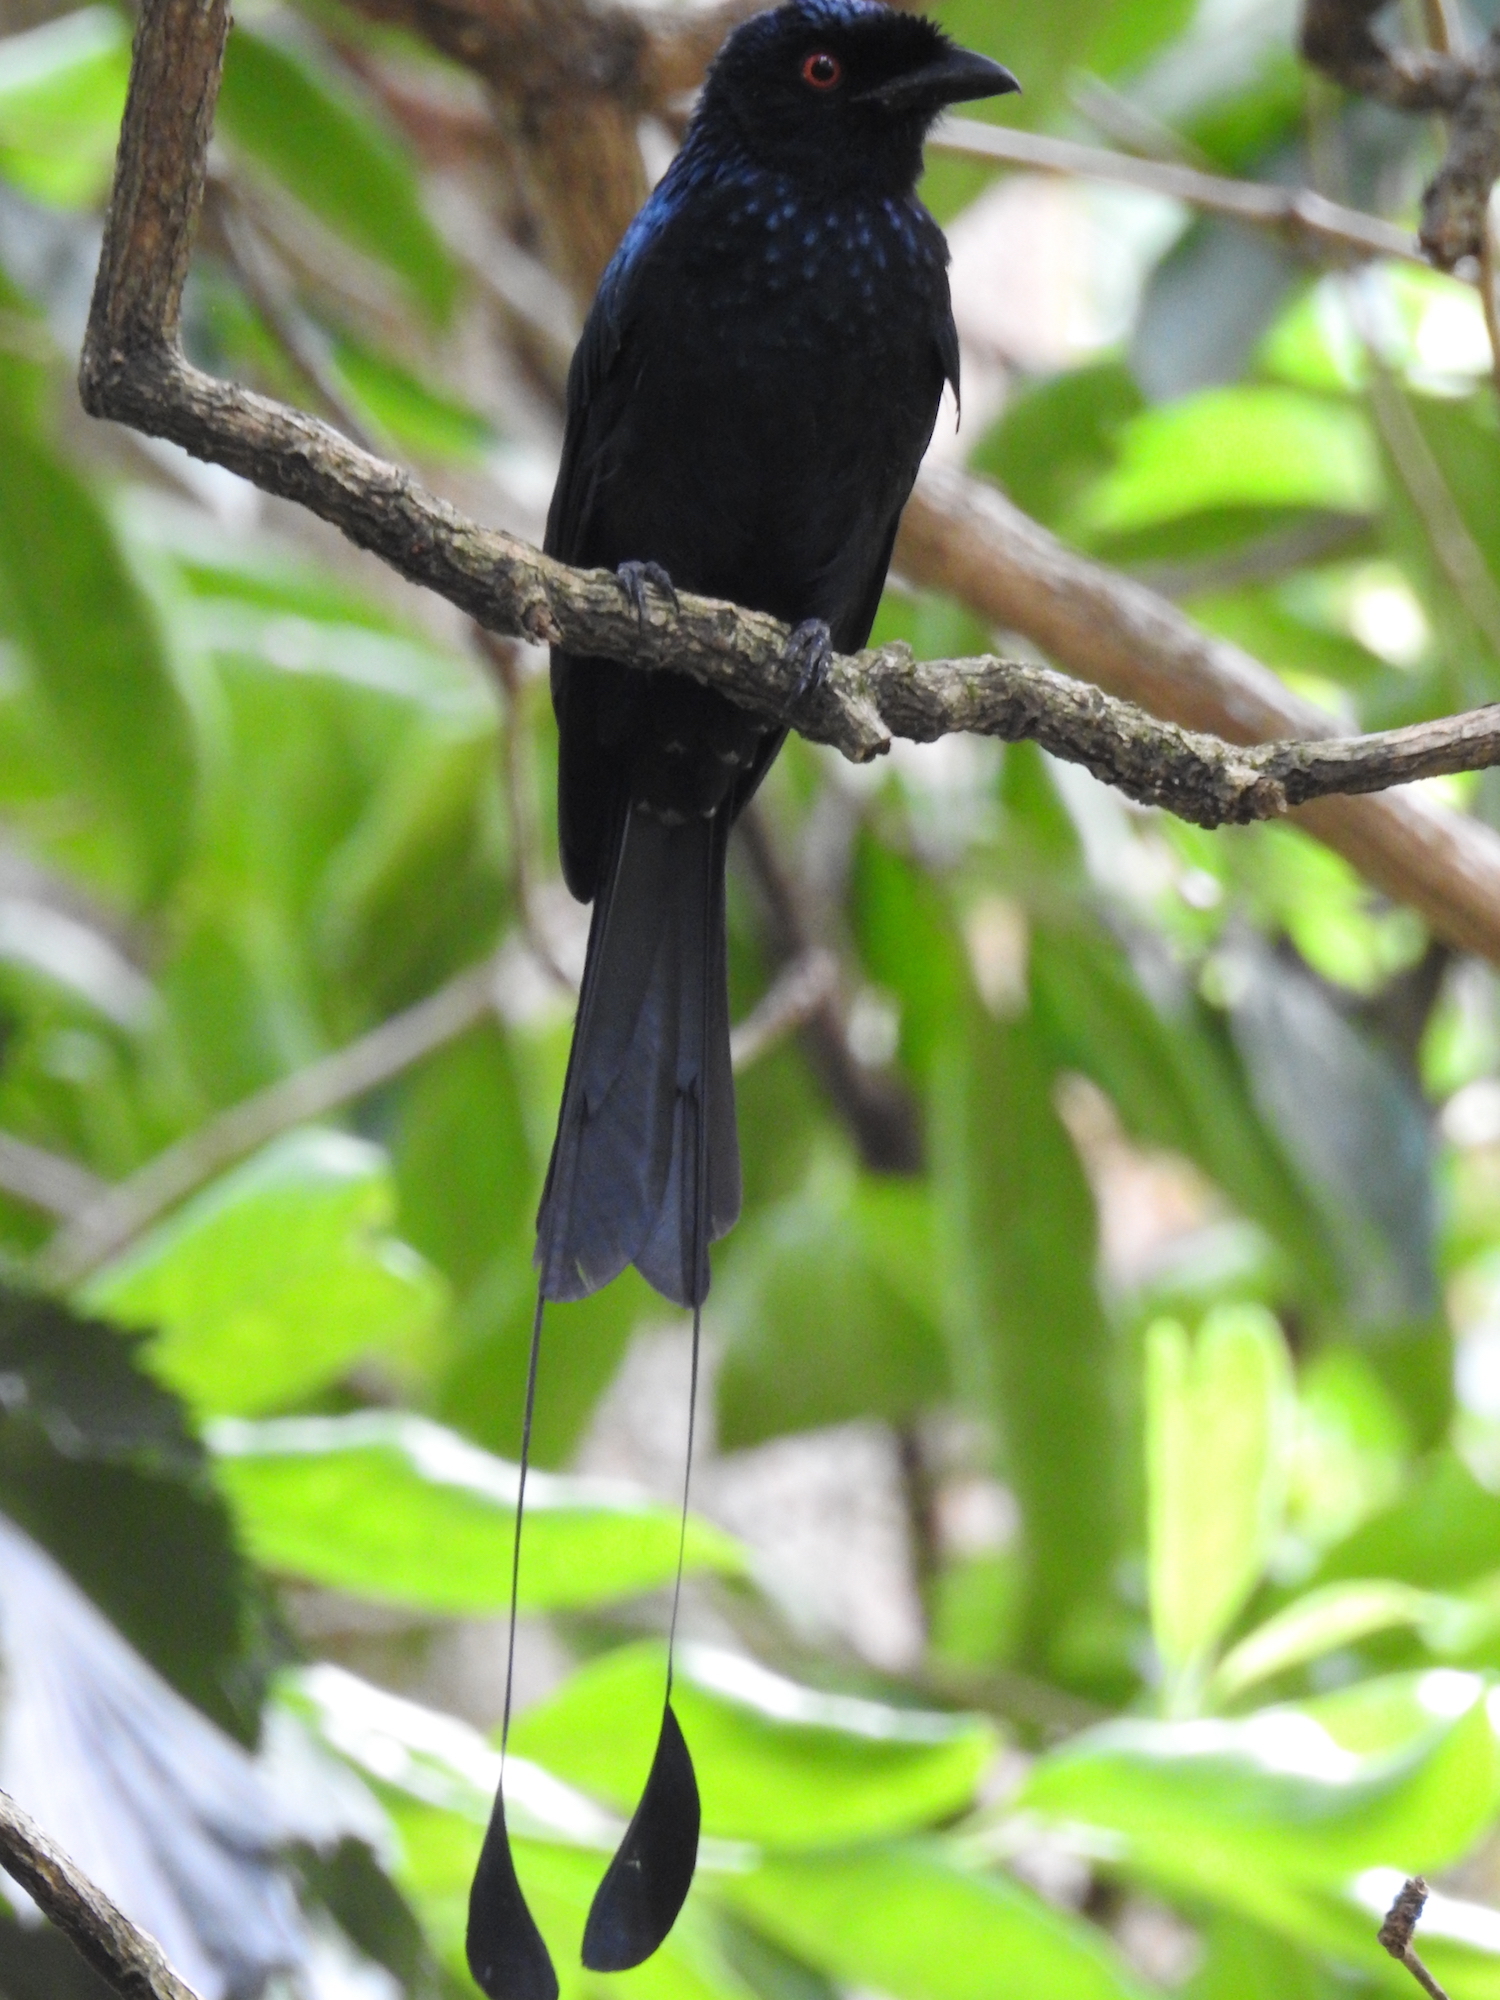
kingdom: Animalia
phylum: Chordata
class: Aves
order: Passeriformes
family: Dicruridae
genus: Dicrurus
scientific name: Dicrurus paradiseus
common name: Greater racket-tailed drongo
